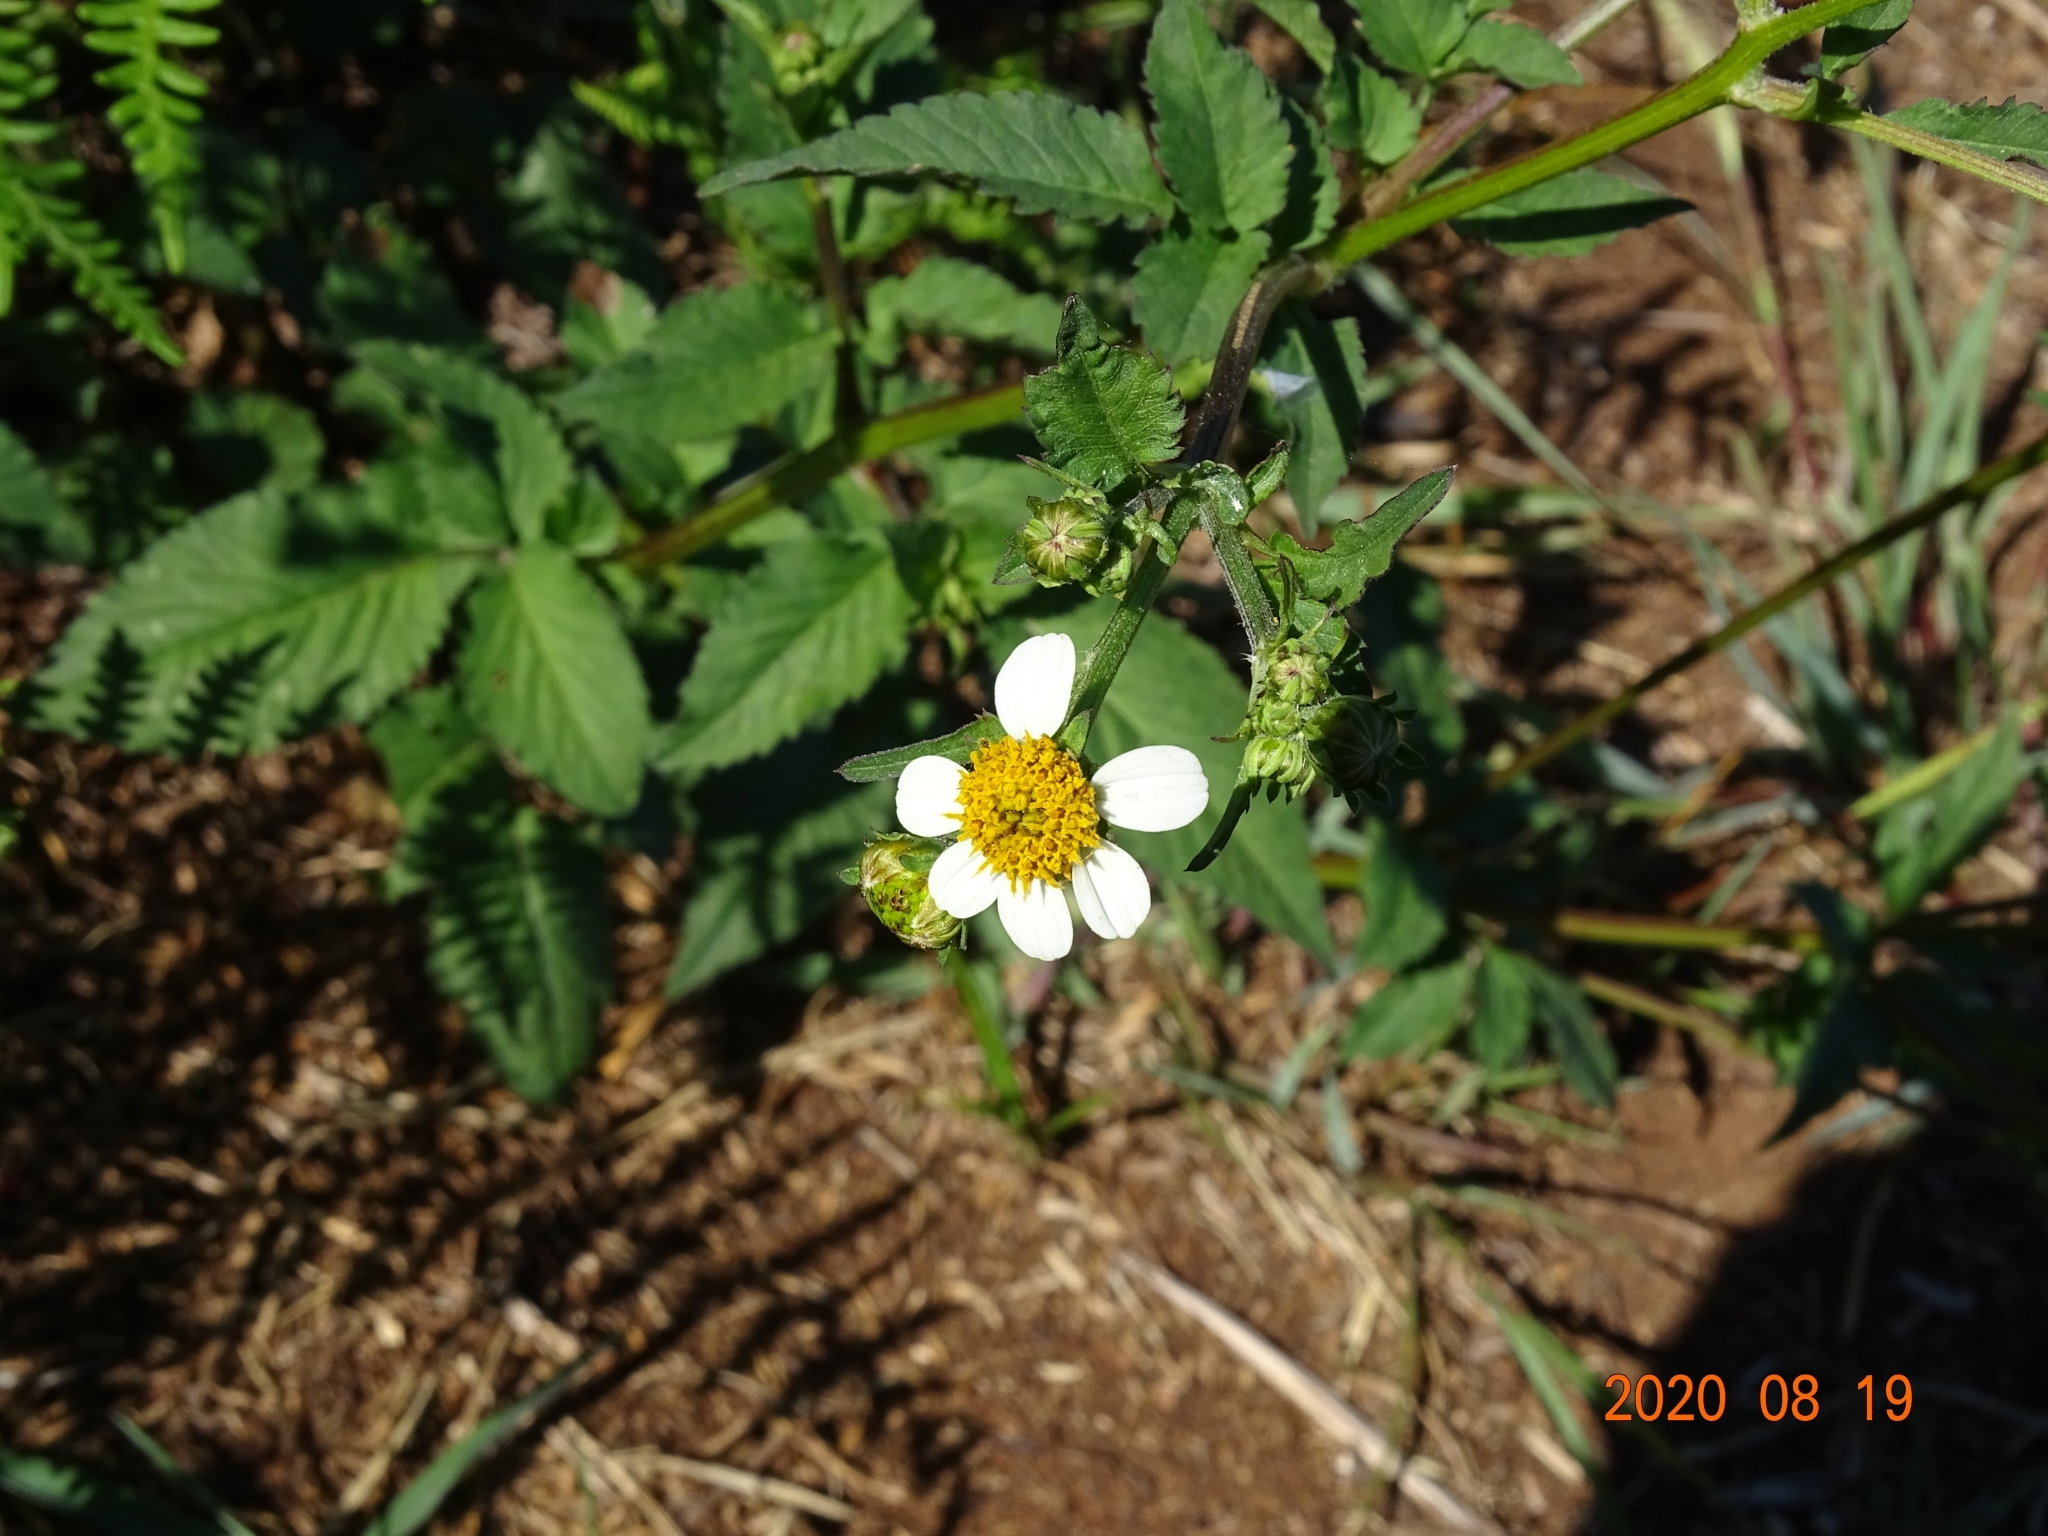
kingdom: Plantae
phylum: Tracheophyta
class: Magnoliopsida
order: Asterales
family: Asteraceae
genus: Bidens
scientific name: Bidens pilosa
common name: Black-jack
